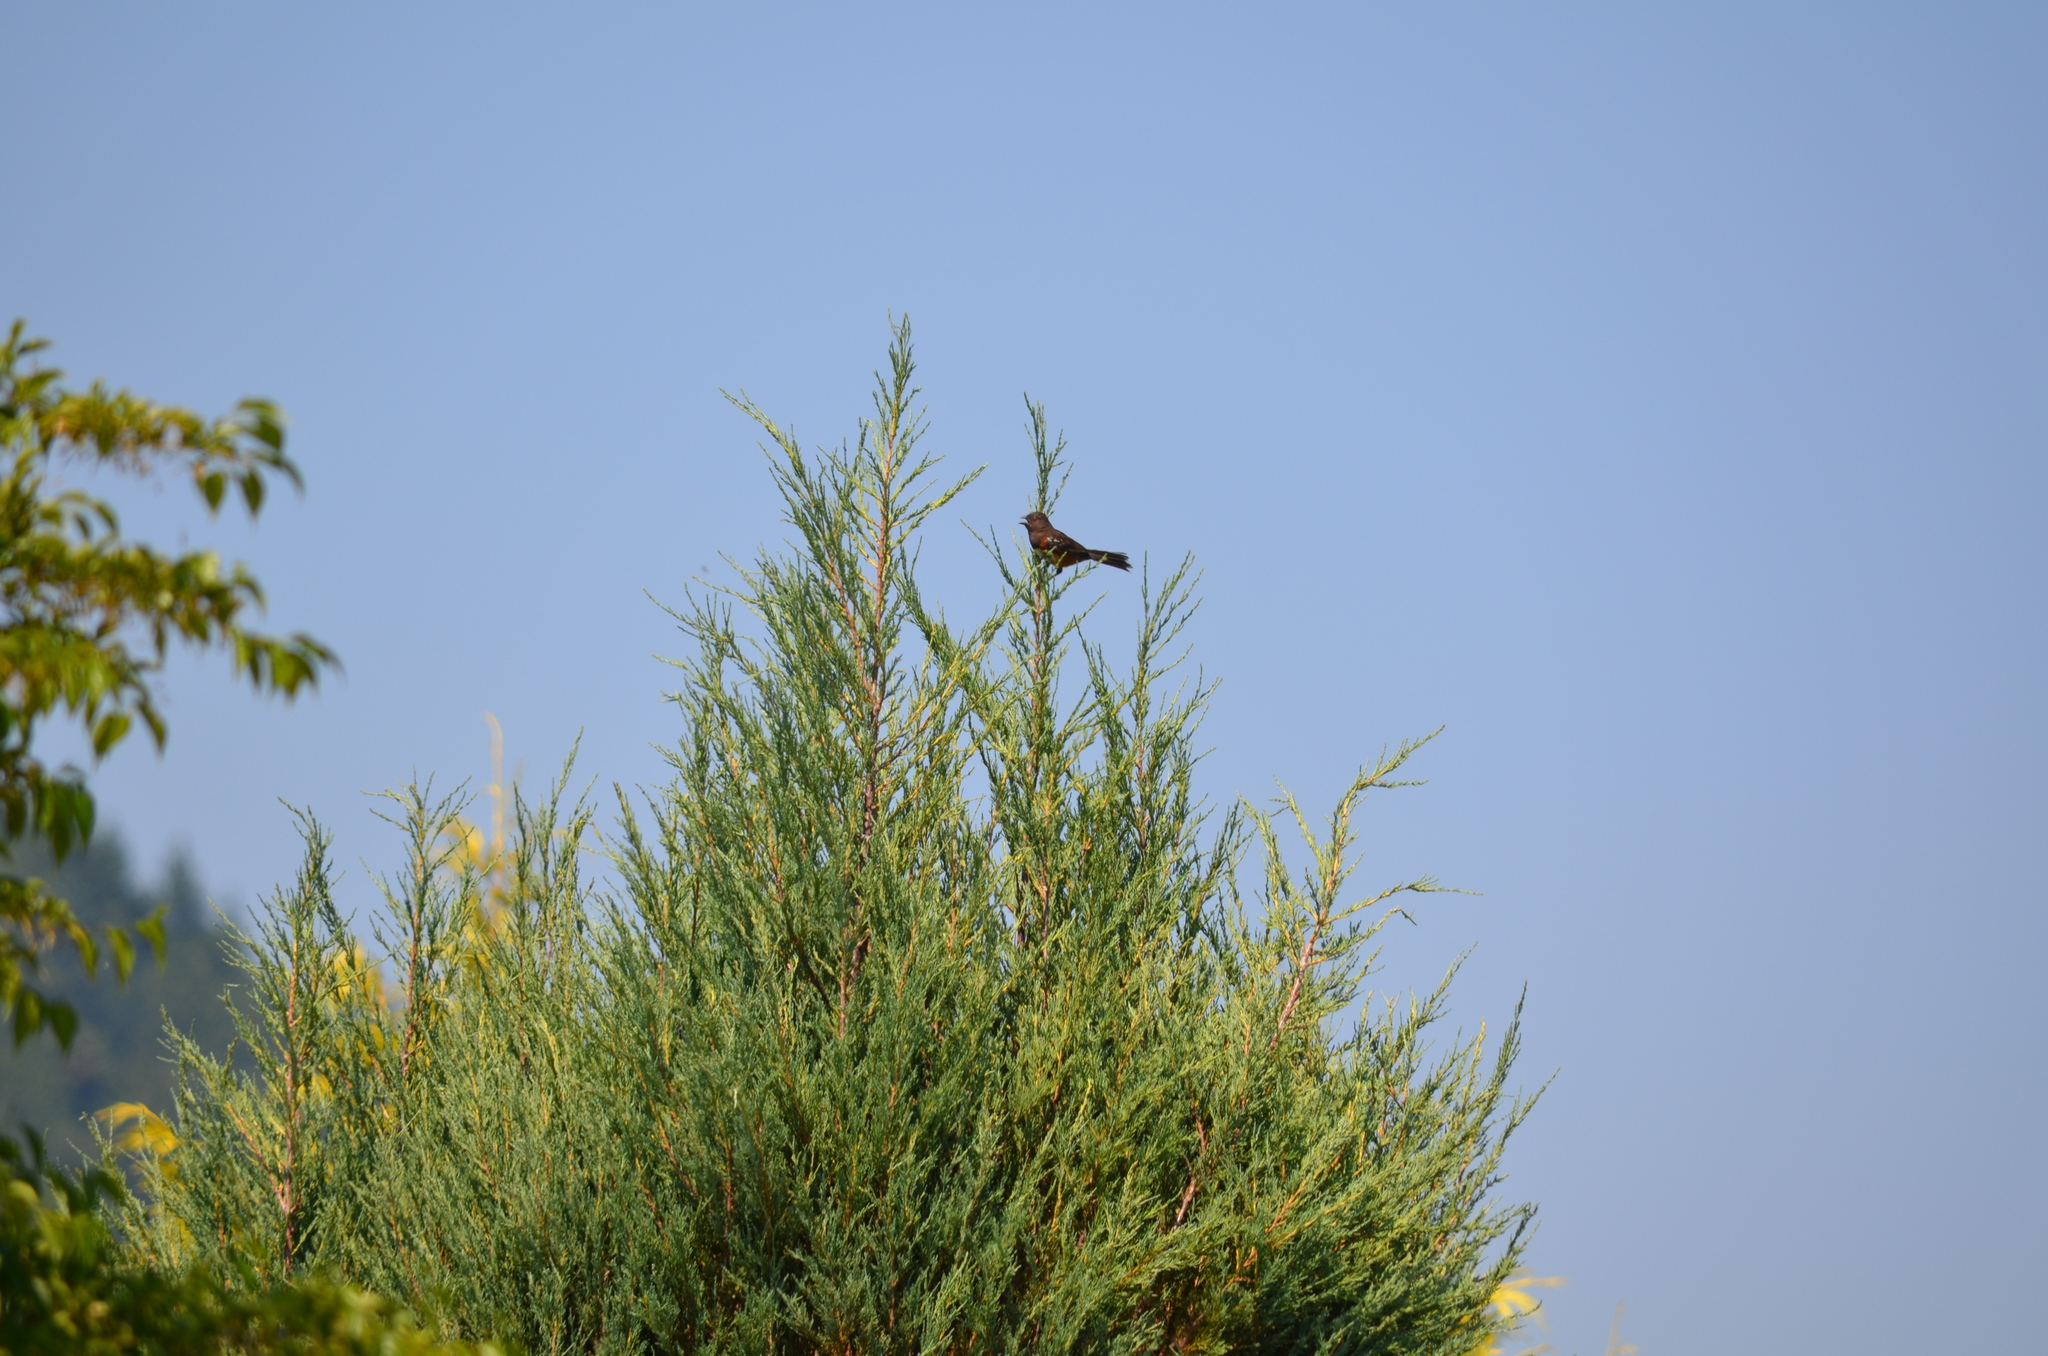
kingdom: Animalia
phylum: Chordata
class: Aves
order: Passeriformes
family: Passerellidae
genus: Pipilo
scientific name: Pipilo maculatus
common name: Spotted towhee
